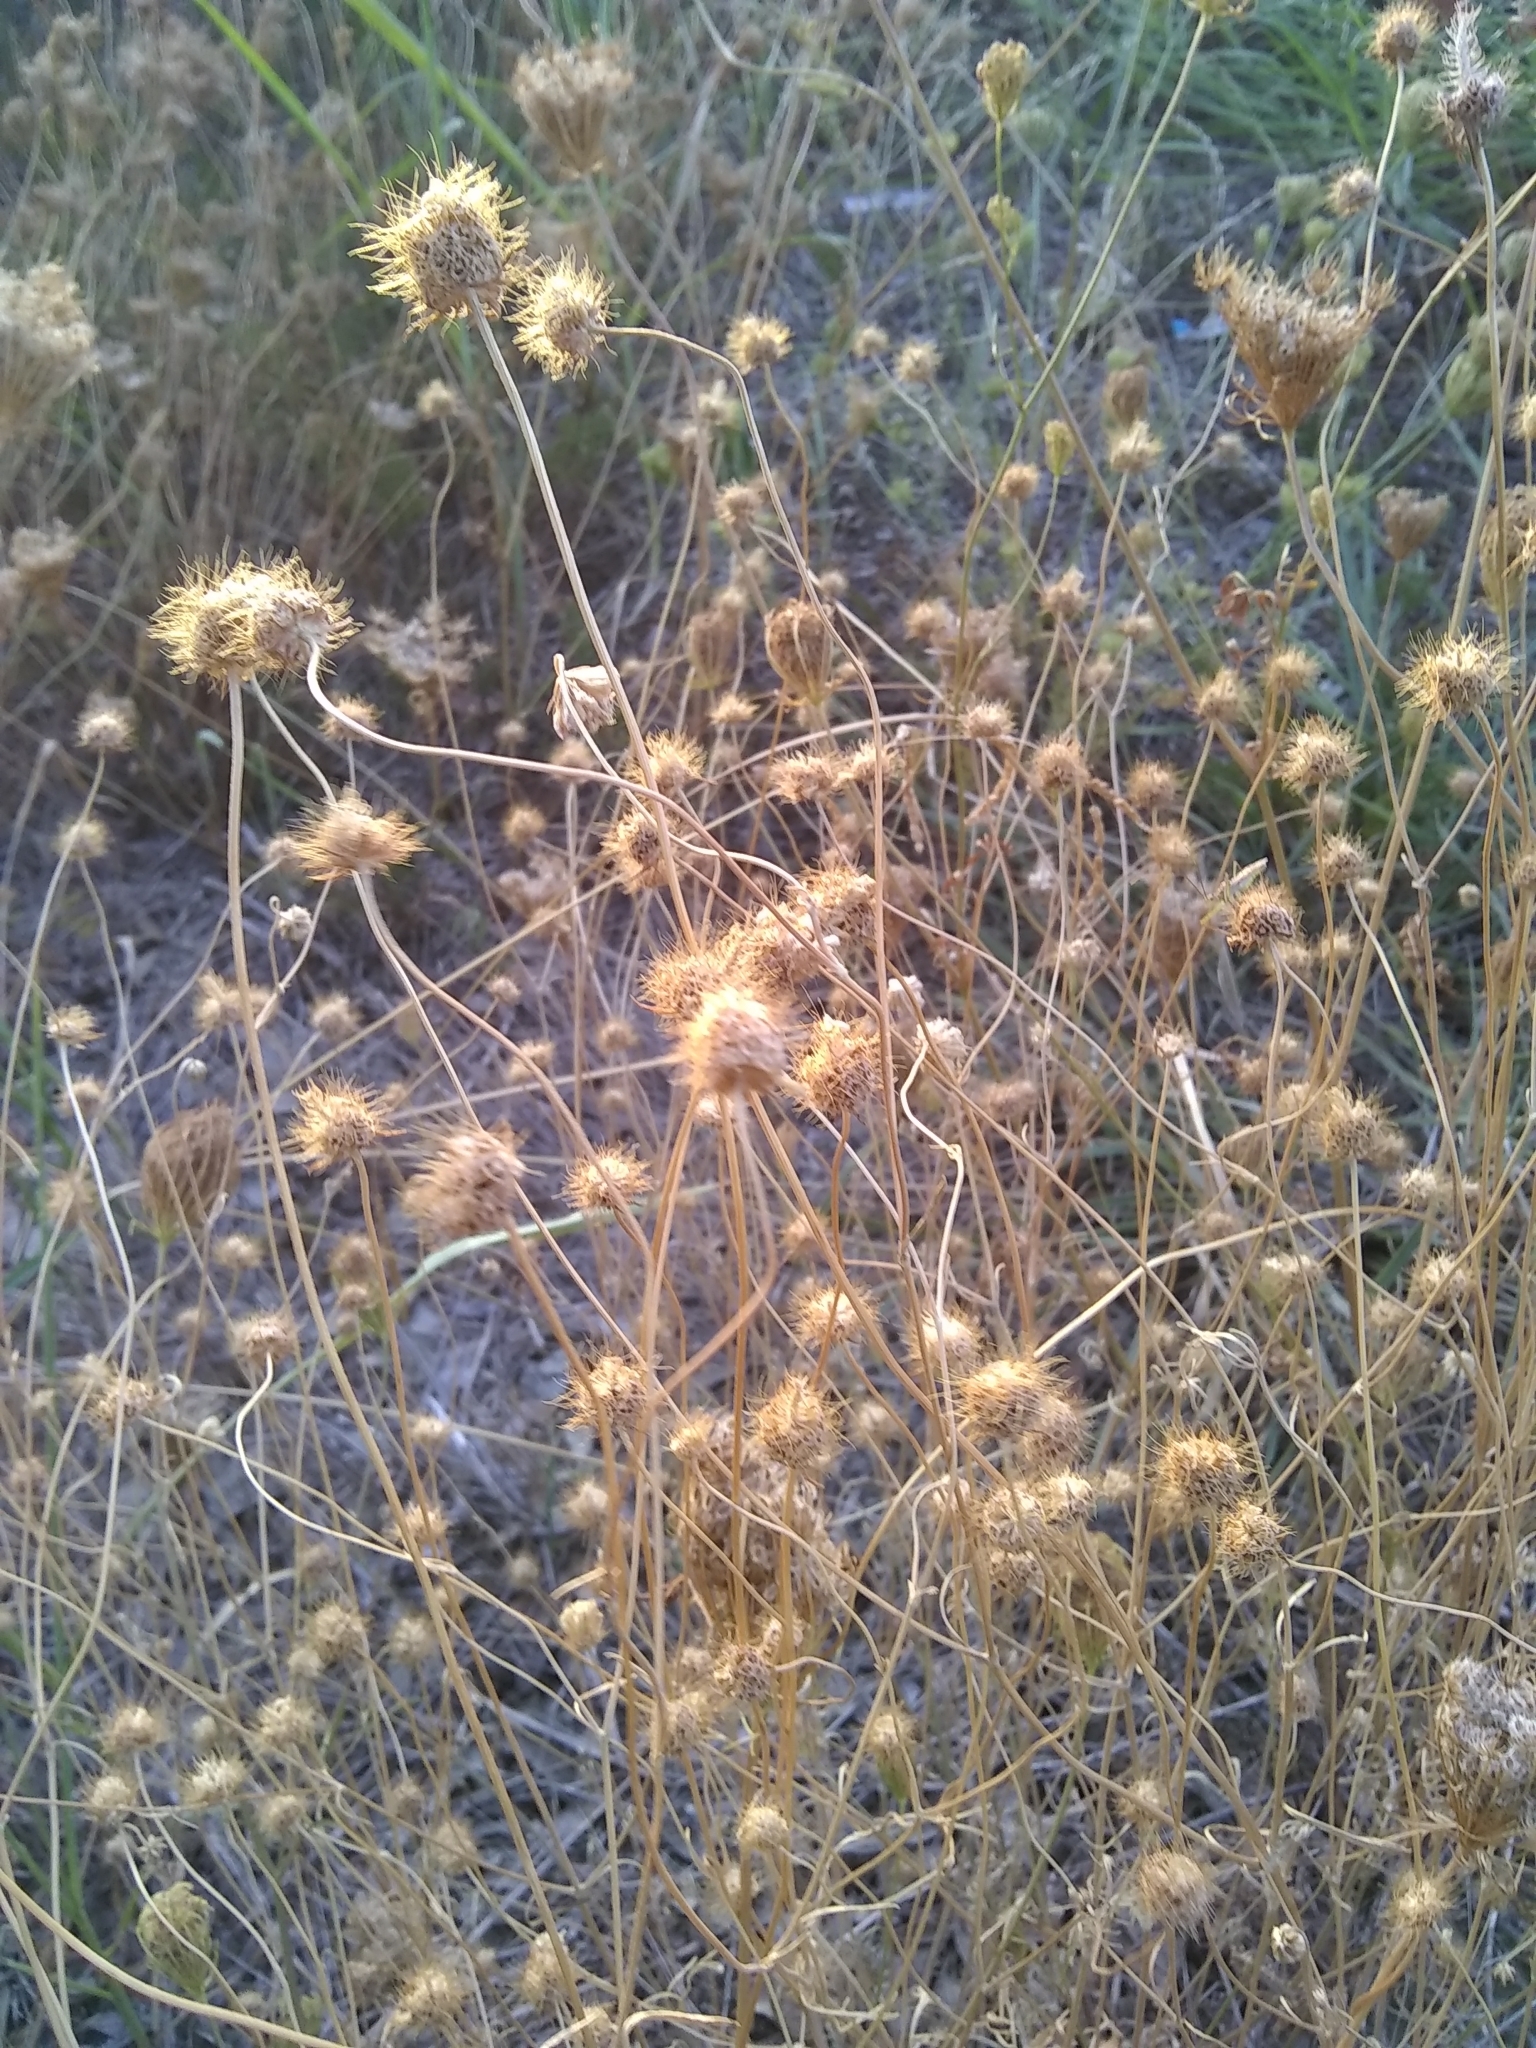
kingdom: Plantae
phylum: Tracheophyta
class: Magnoliopsida
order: Apiales
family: Apiaceae
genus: Daucus
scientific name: Daucus carota
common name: Wild carrot
